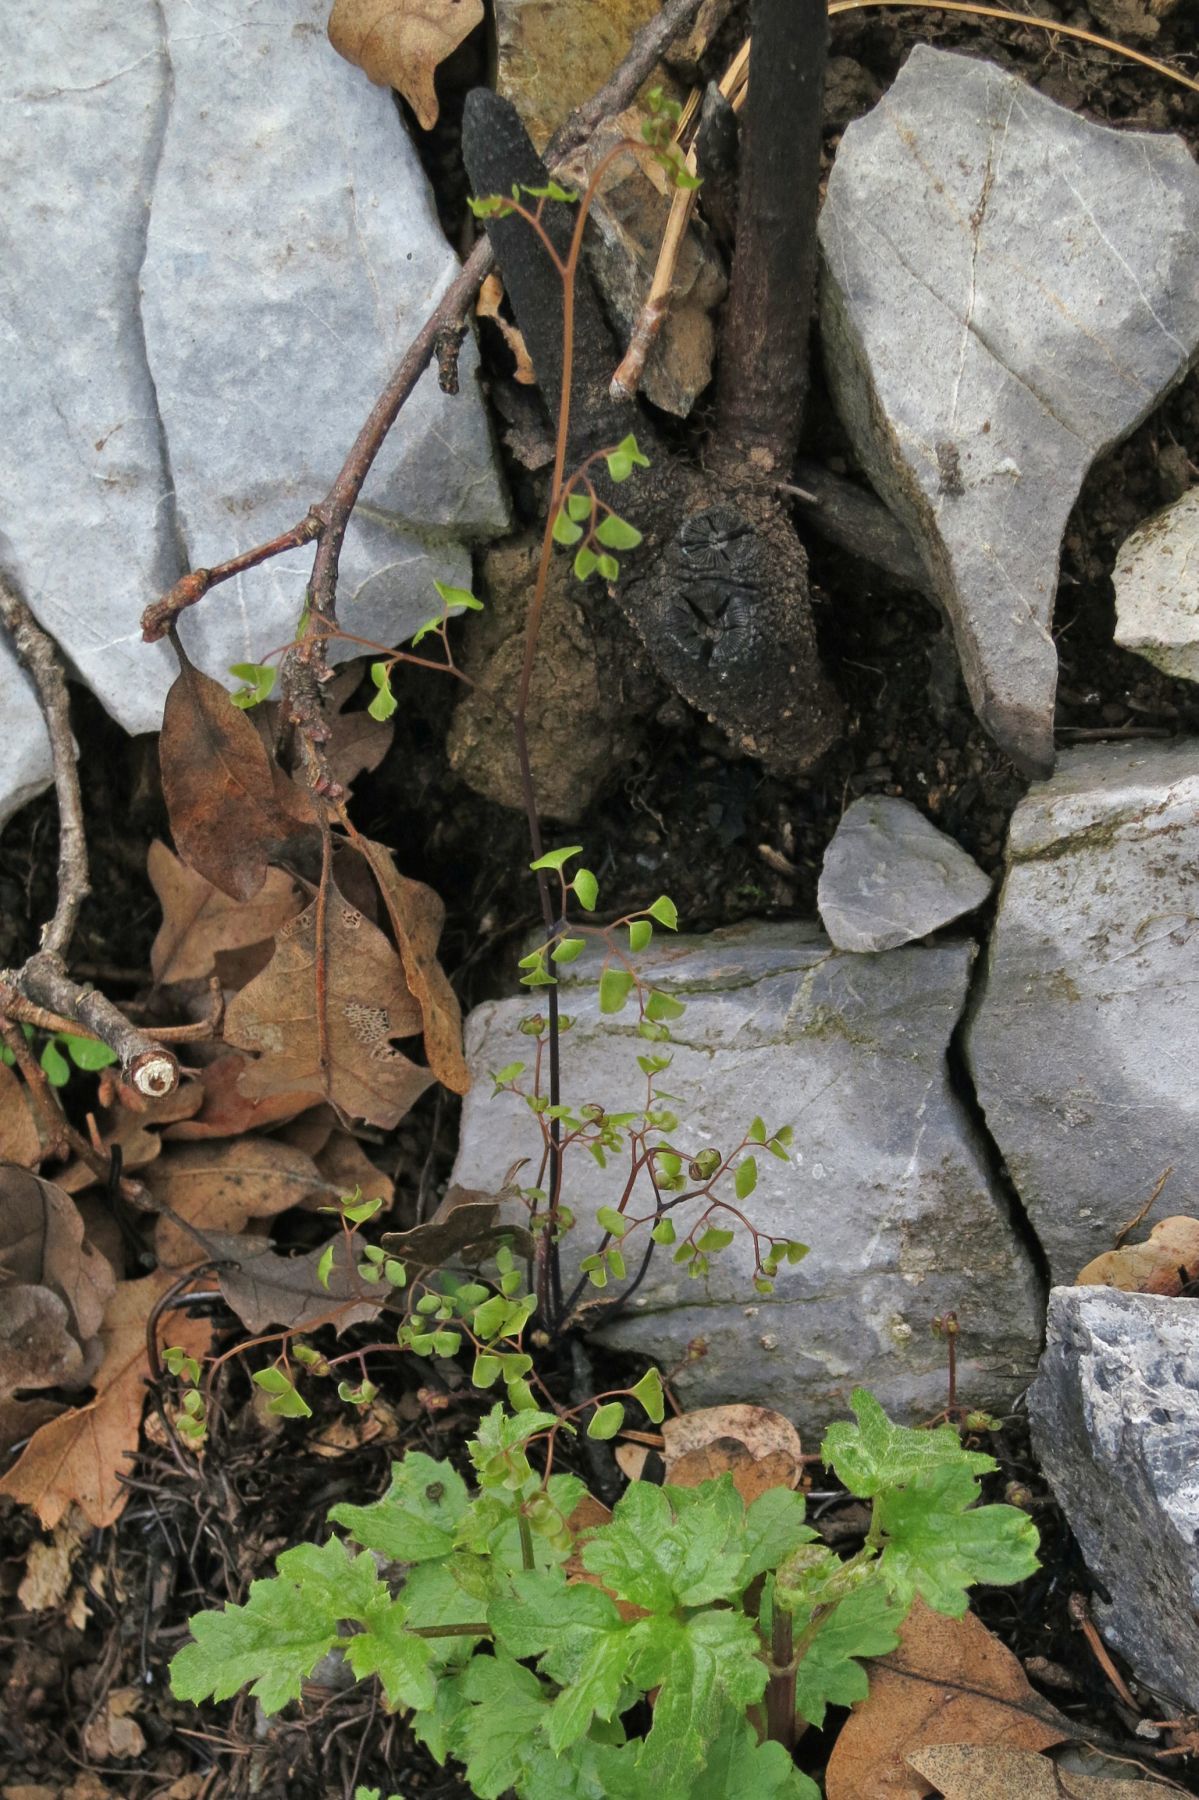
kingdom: Plantae
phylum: Tracheophyta
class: Polypodiopsida
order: Polypodiales
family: Pteridaceae
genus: Adiantum
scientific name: Adiantum shastense
